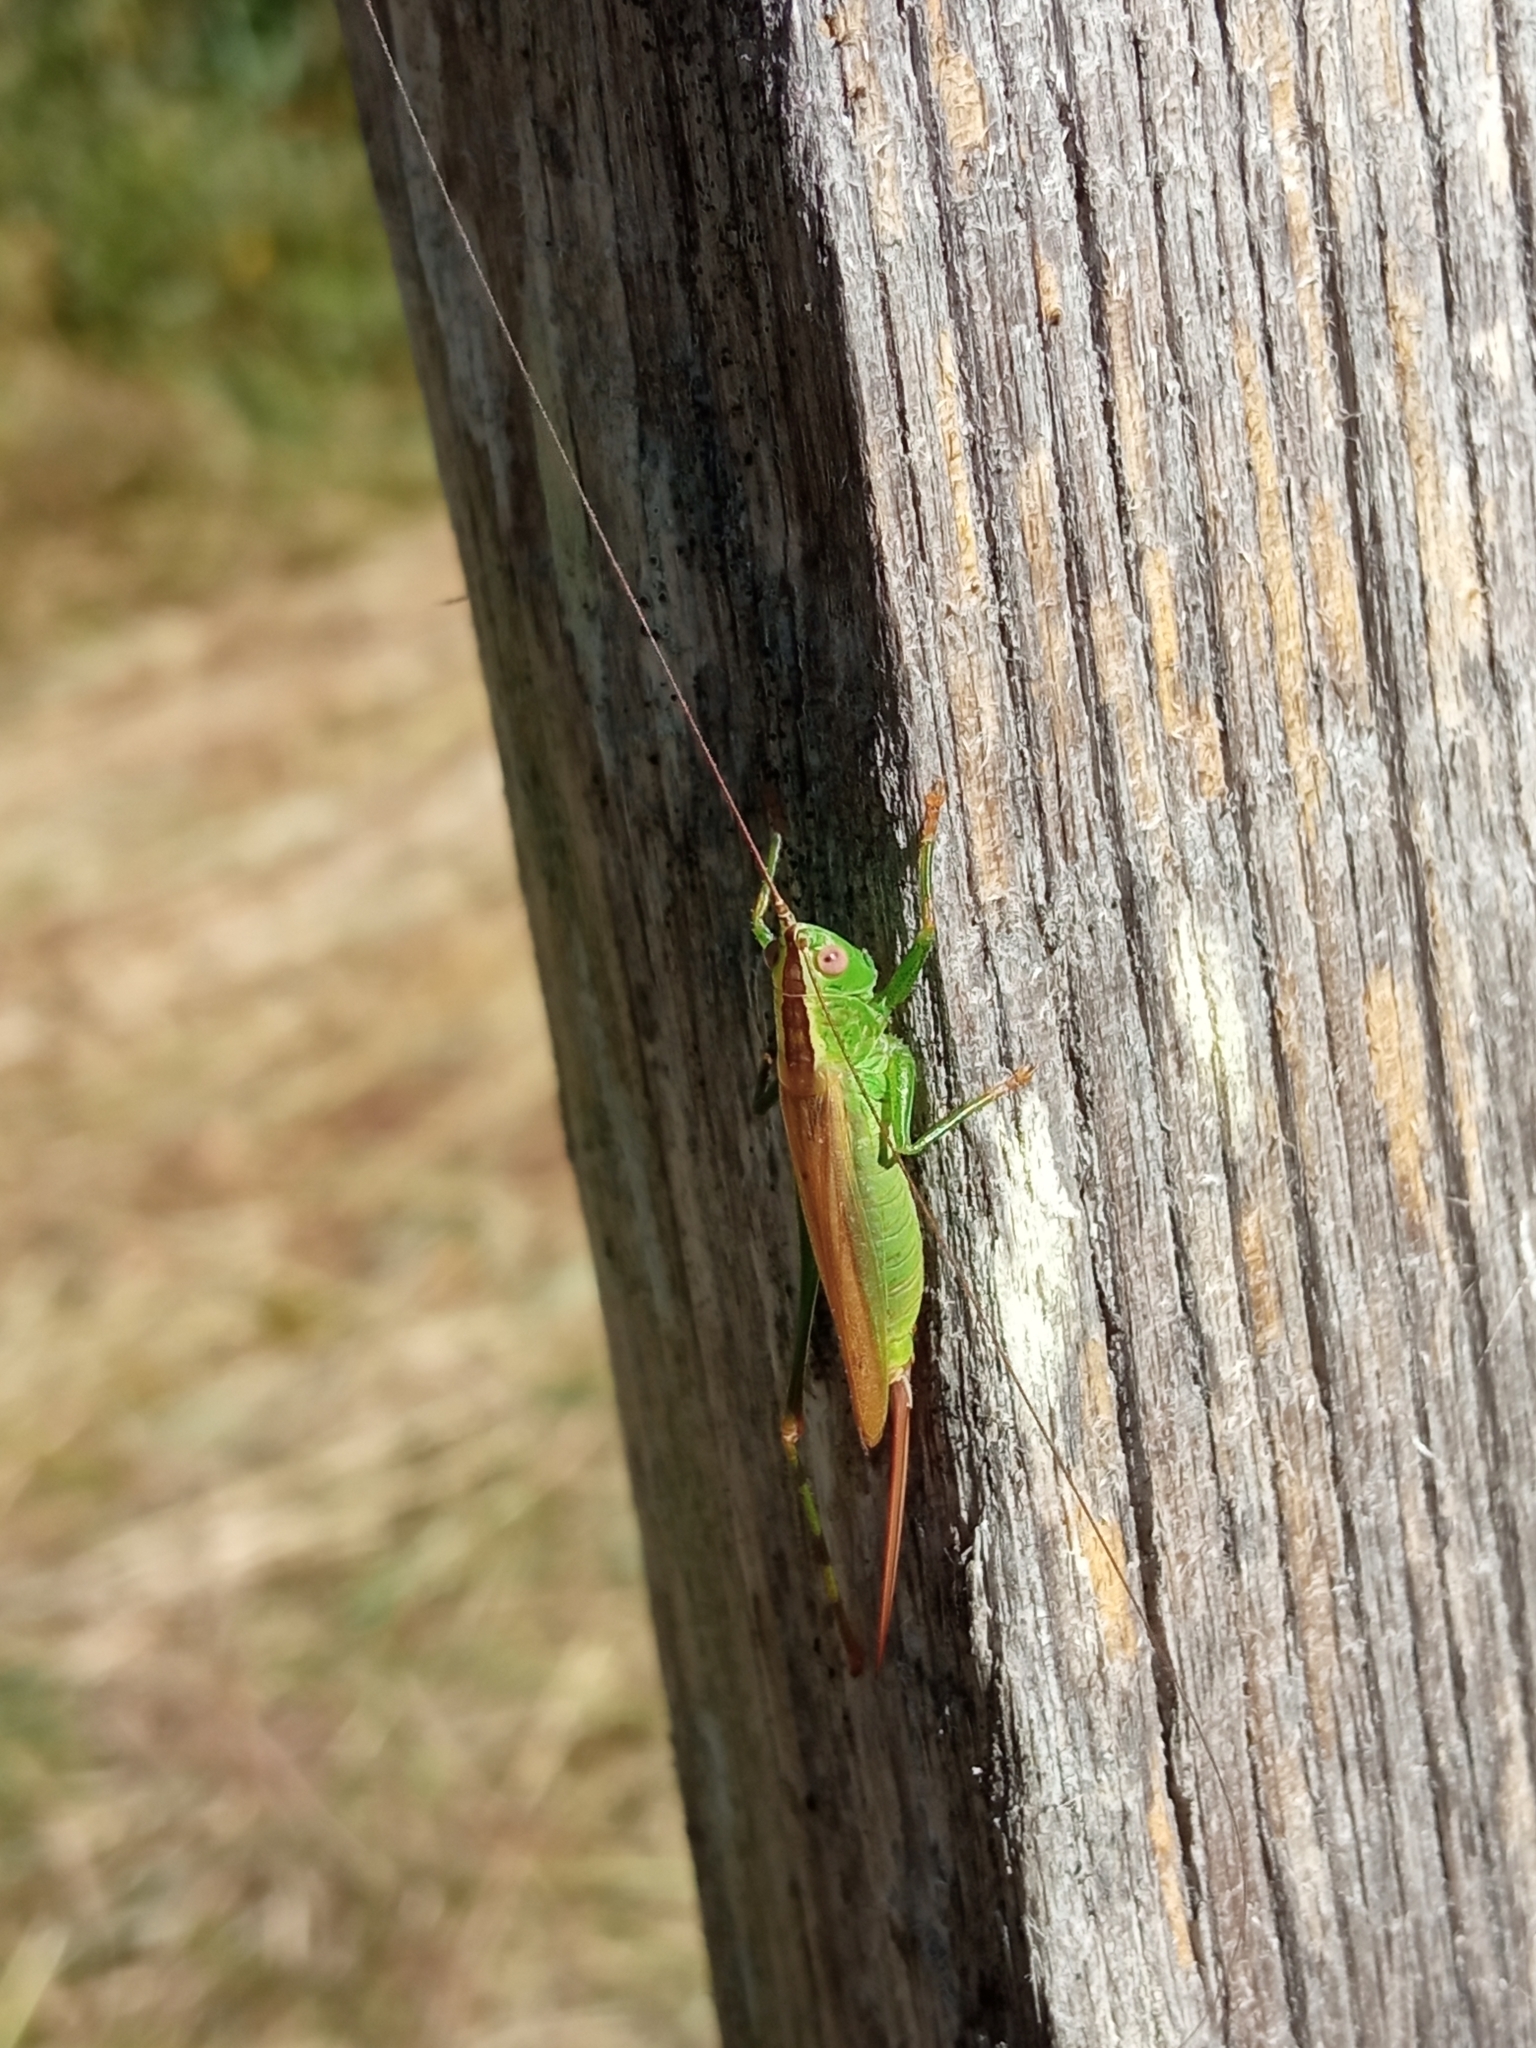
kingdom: Animalia
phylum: Arthropoda
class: Insecta
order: Orthoptera
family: Tettigoniidae
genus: Conocephalus
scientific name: Conocephalus fuscus
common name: Long-winged conehead
